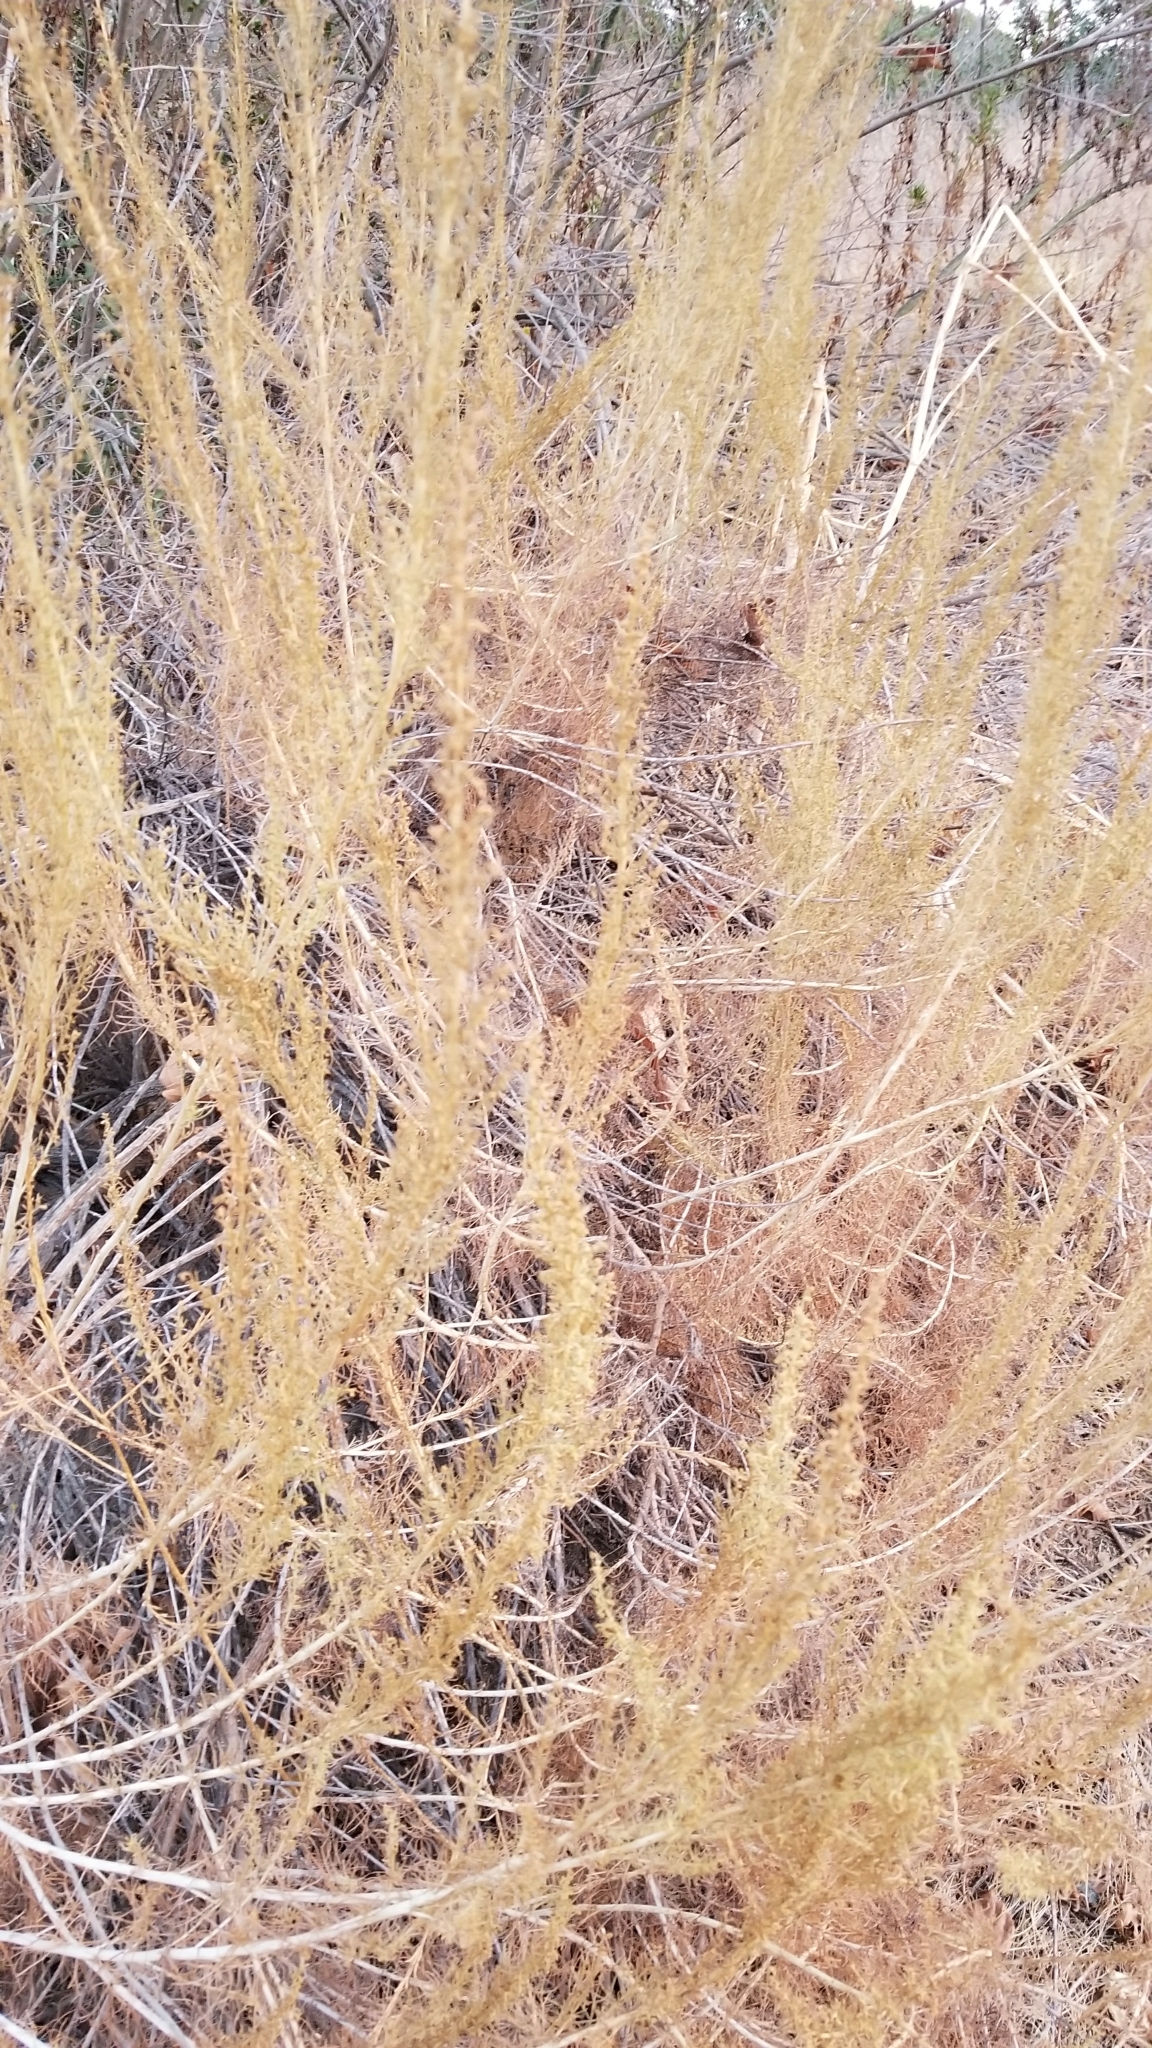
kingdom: Plantae
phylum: Tracheophyta
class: Magnoliopsida
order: Asterales
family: Asteraceae
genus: Artemisia
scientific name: Artemisia californica
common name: California sagebrush
